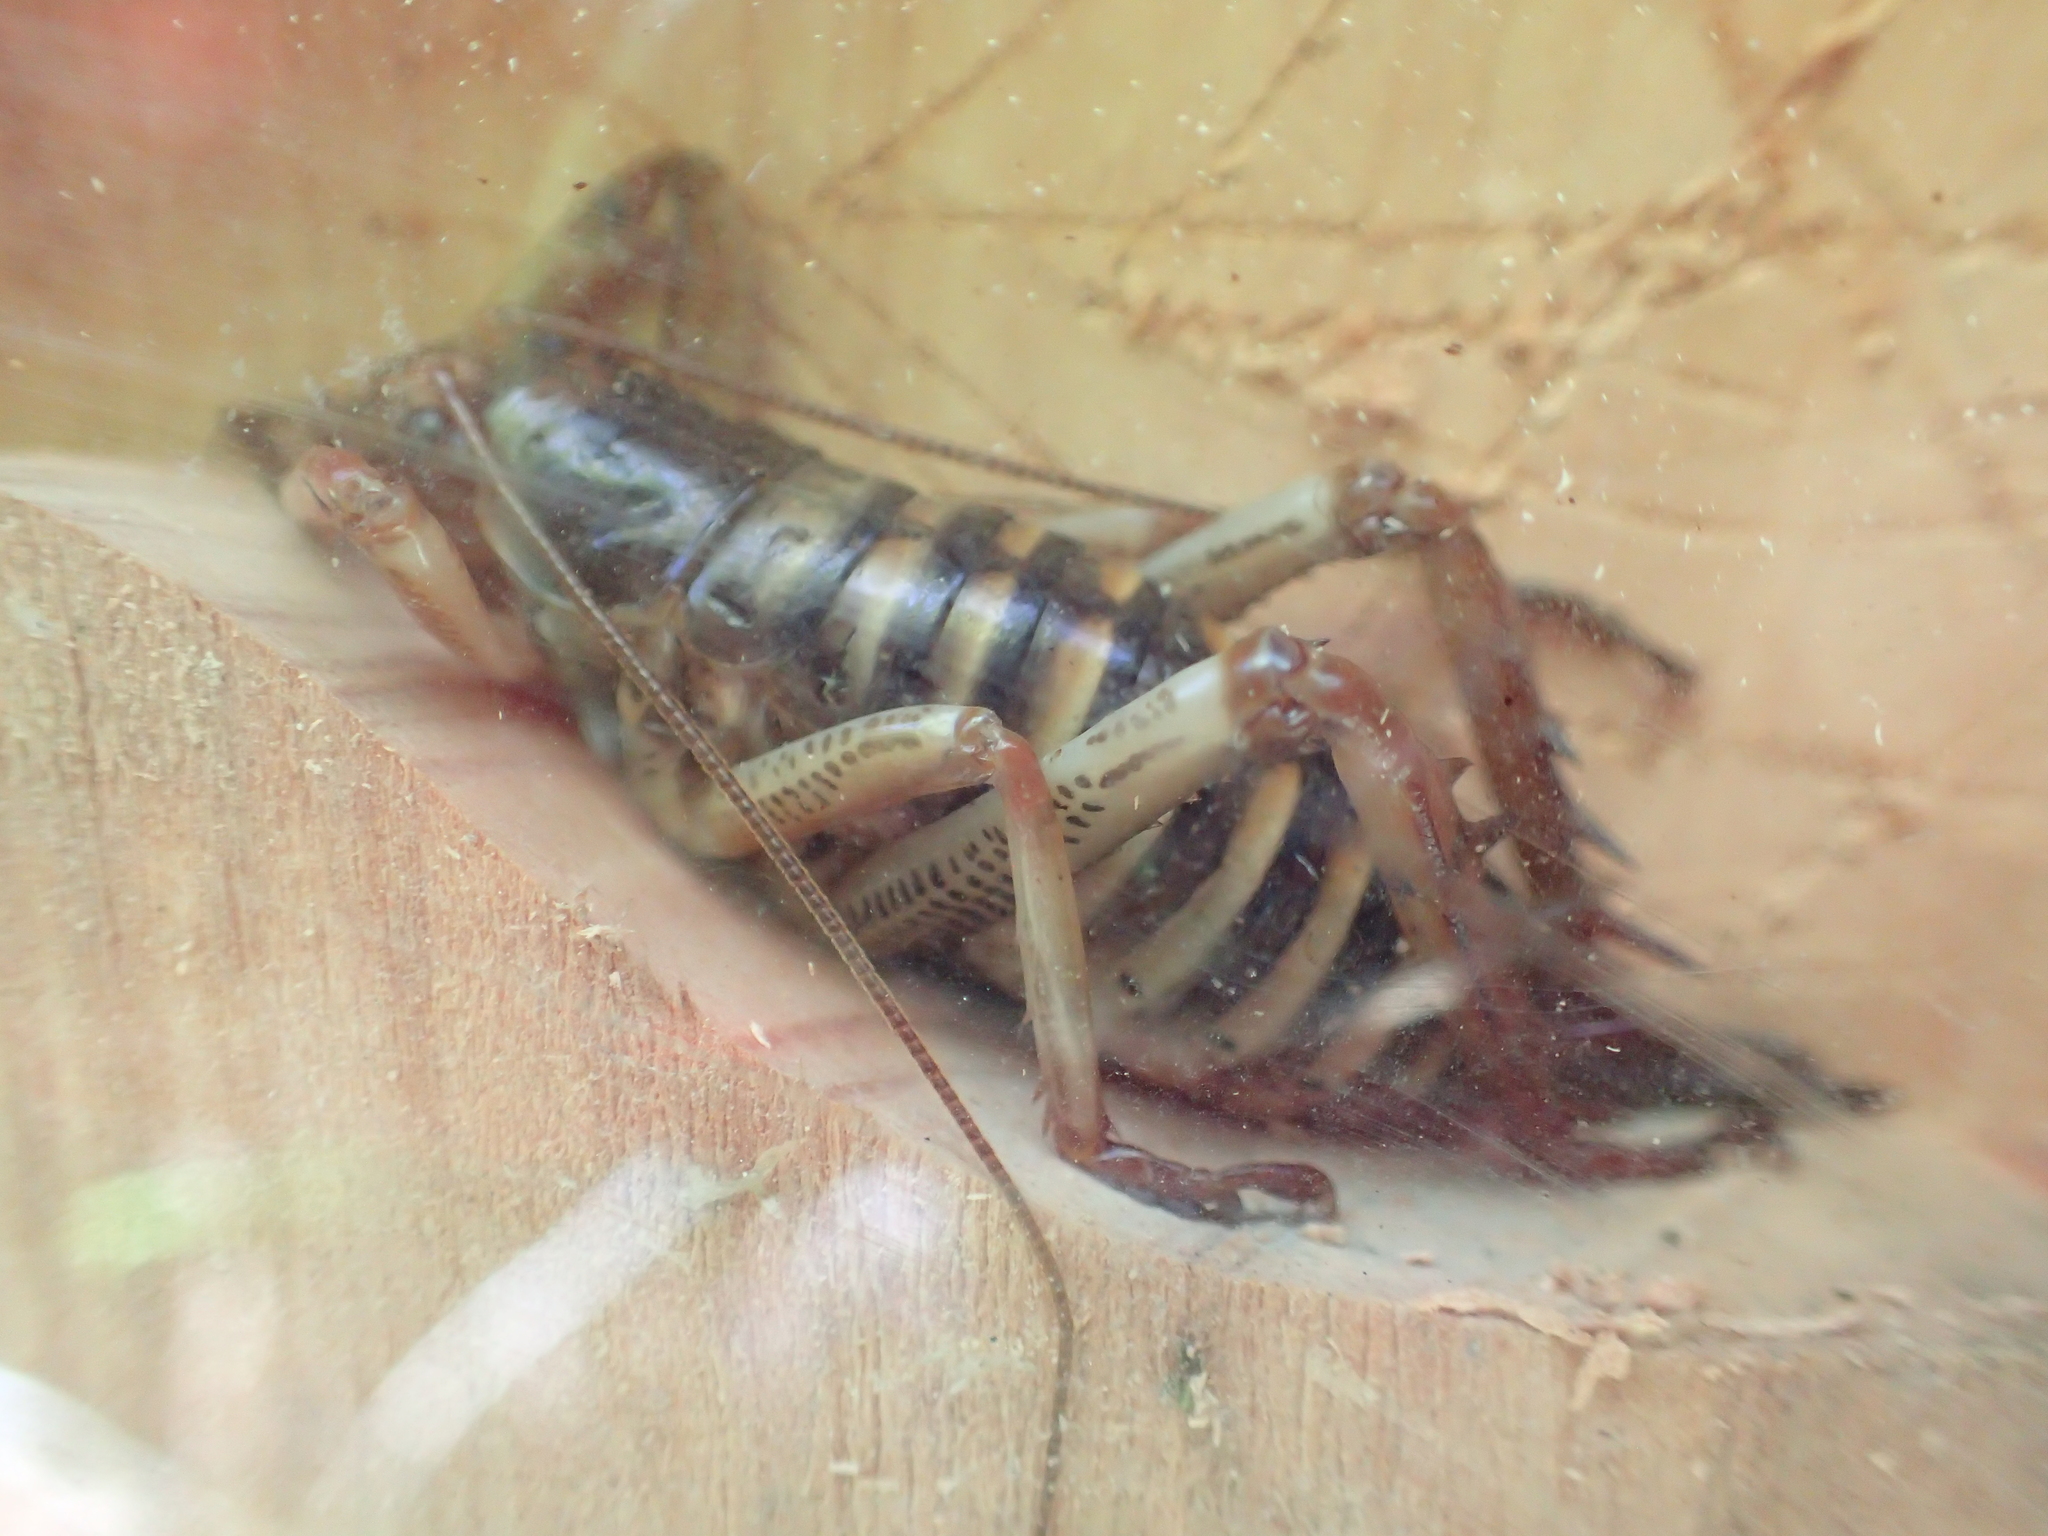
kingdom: Animalia
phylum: Arthropoda
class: Insecta
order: Orthoptera
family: Anostostomatidae
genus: Hemideina
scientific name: Hemideina crassidens
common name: Wellington tree weta
